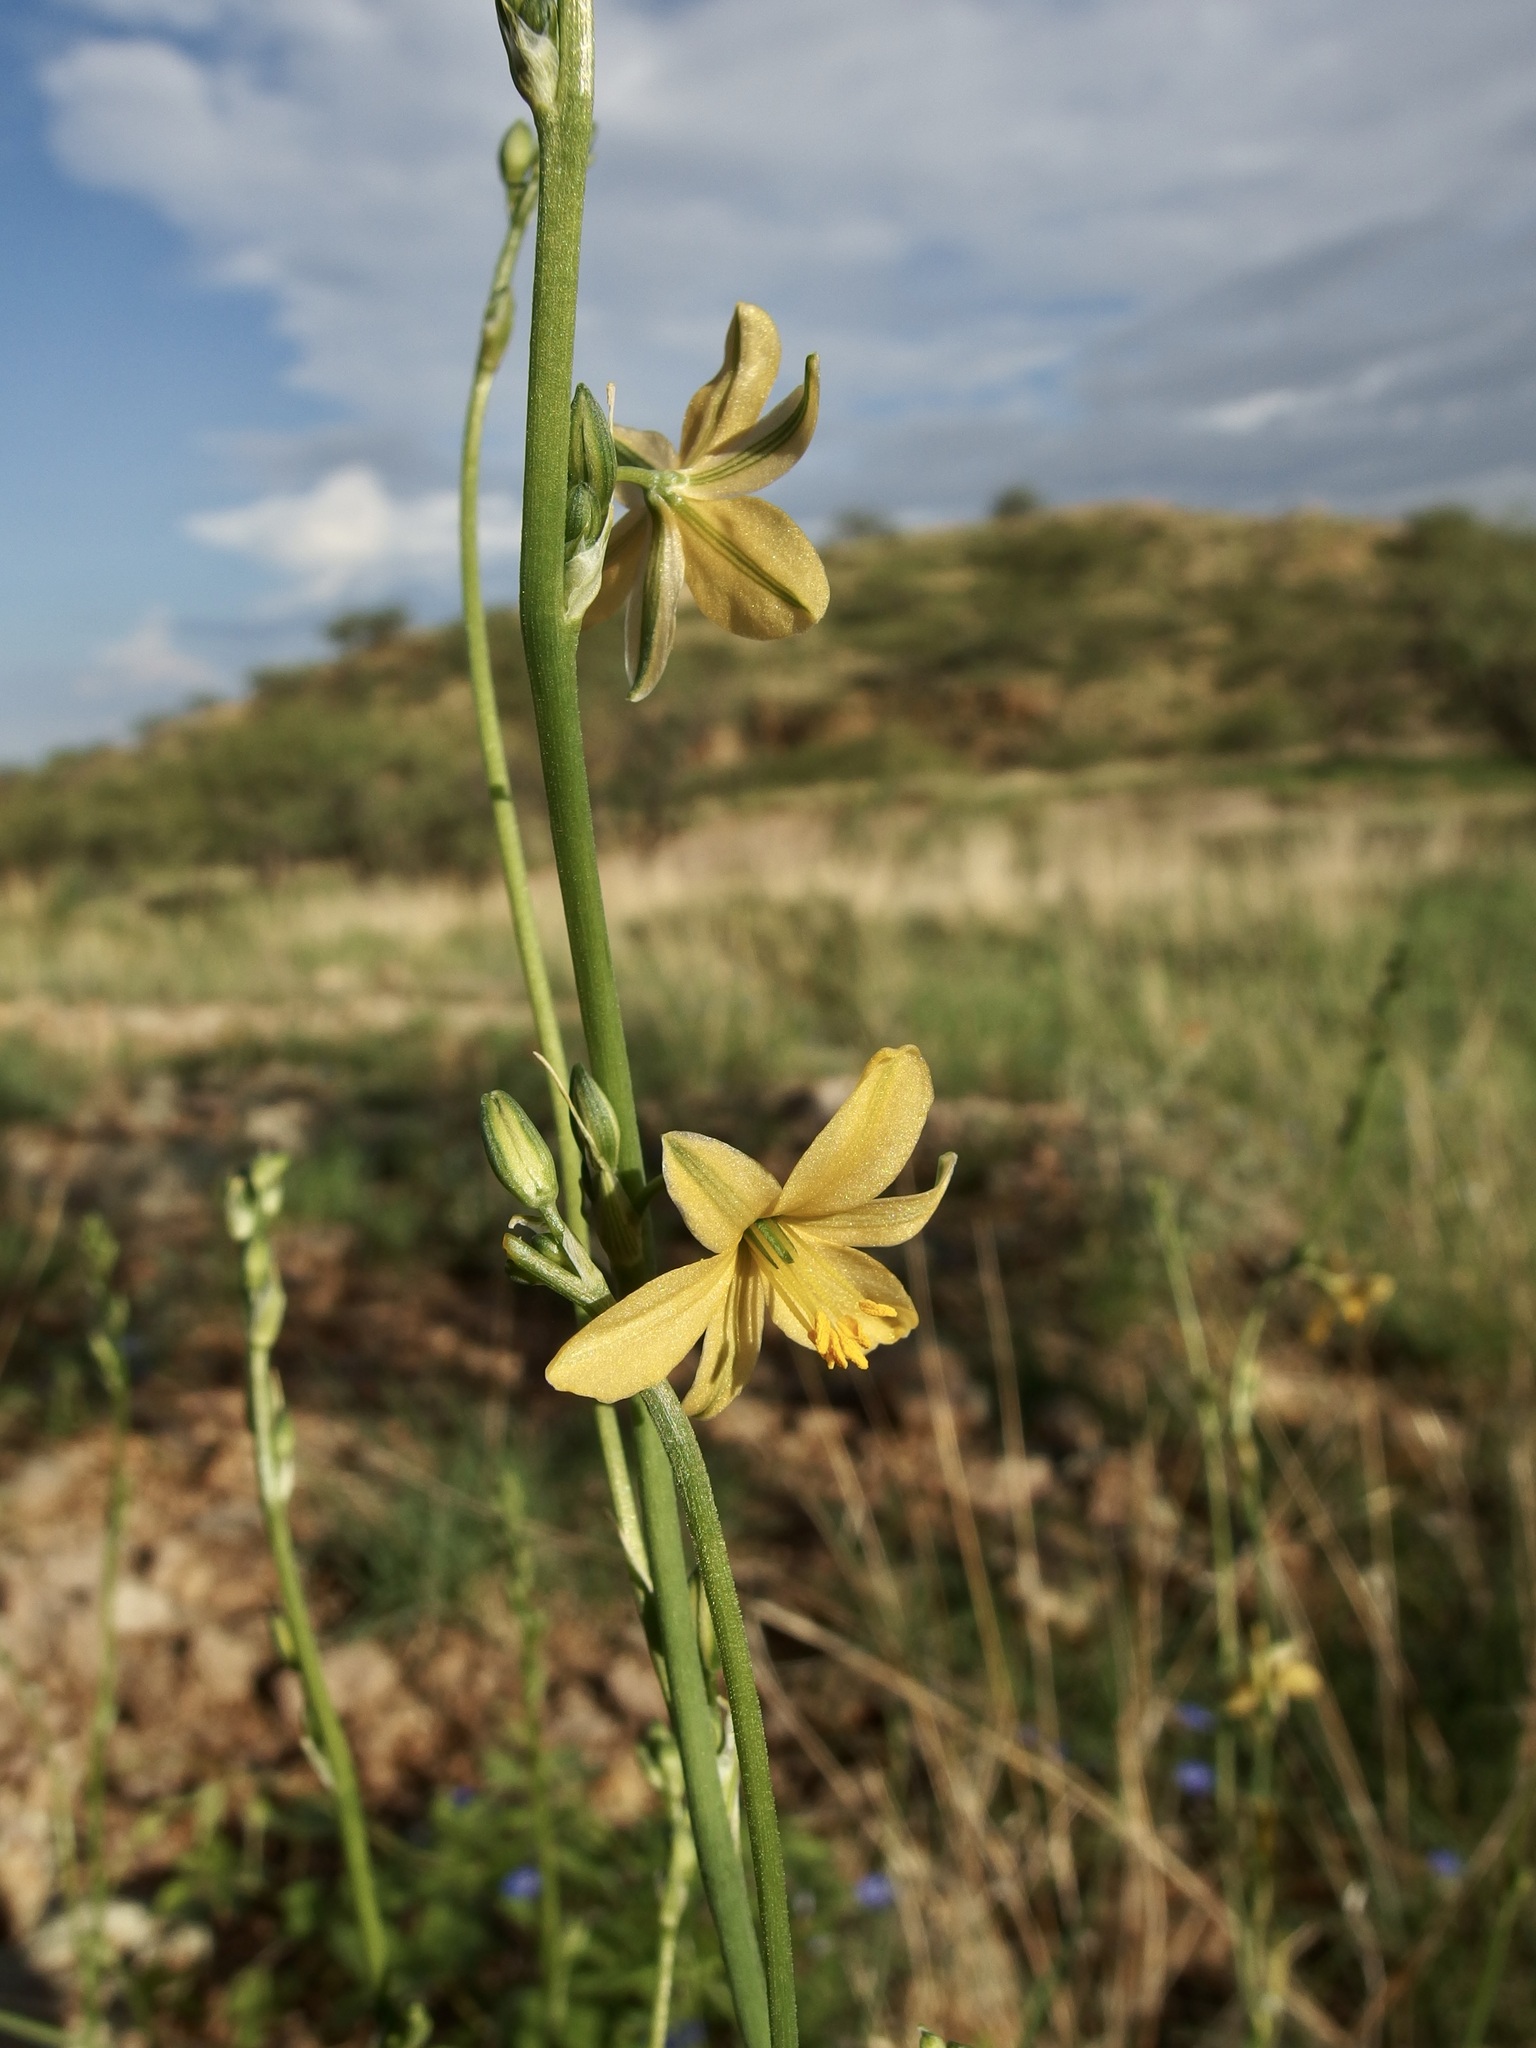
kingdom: Plantae
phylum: Tracheophyta
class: Liliopsida
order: Asparagales
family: Asparagaceae
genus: Echeandia
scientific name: Echeandia flavescens
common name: Amberlily
